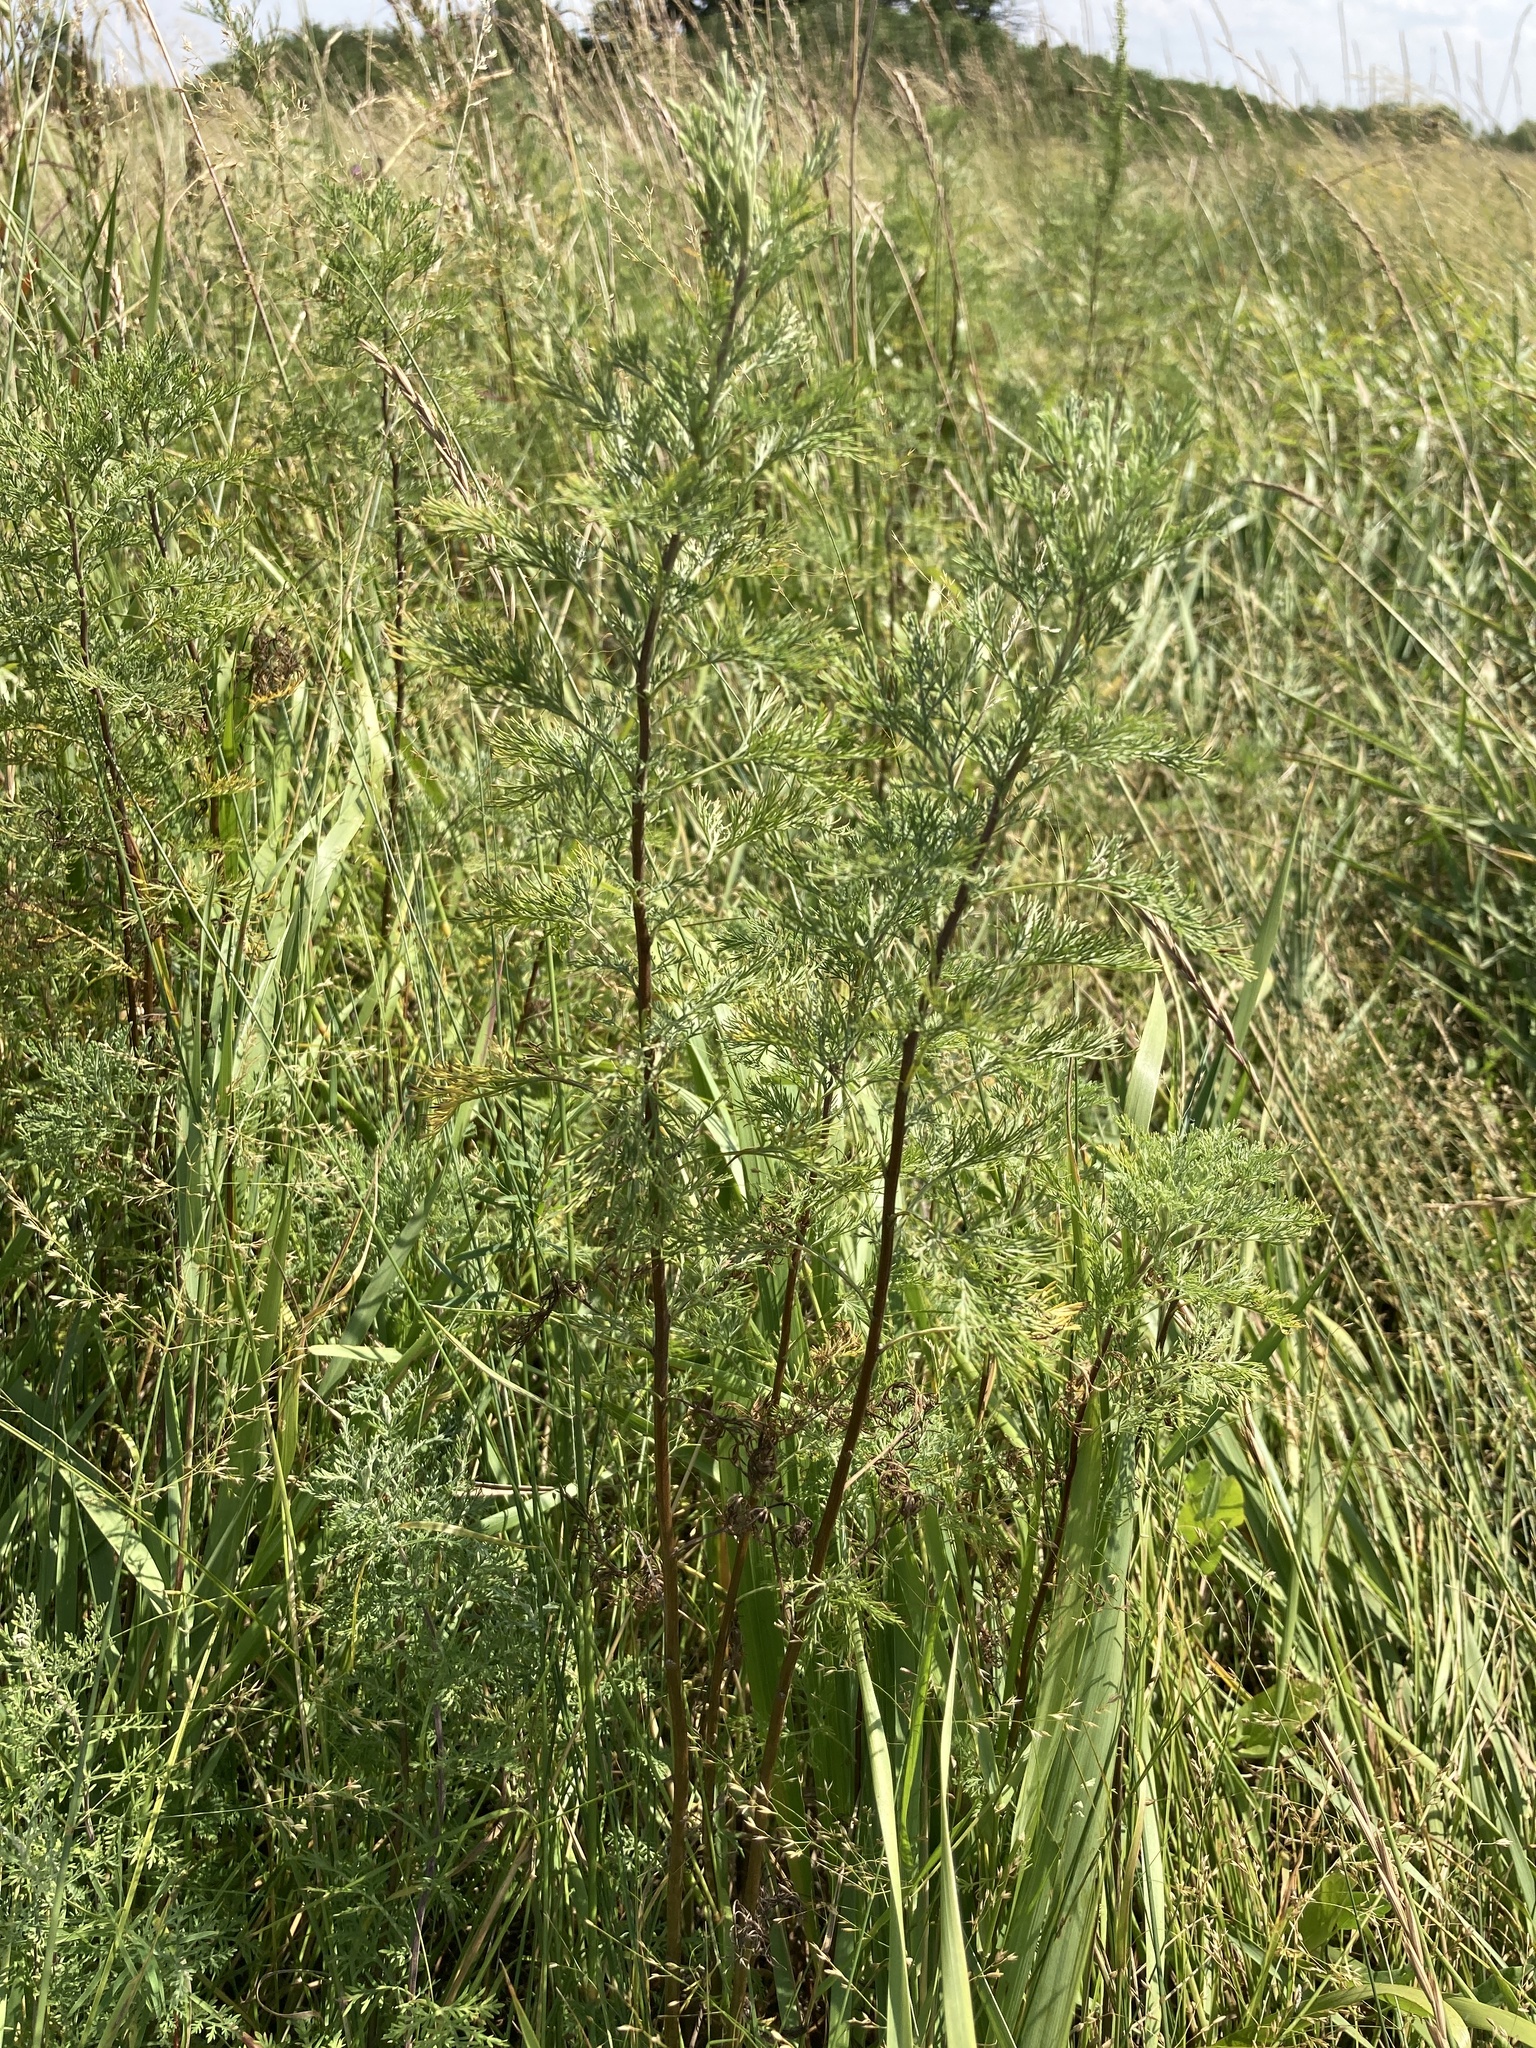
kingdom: Plantae
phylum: Tracheophyta
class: Magnoliopsida
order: Asterales
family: Asteraceae
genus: Artemisia
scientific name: Artemisia abrotanum
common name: Southernwood
